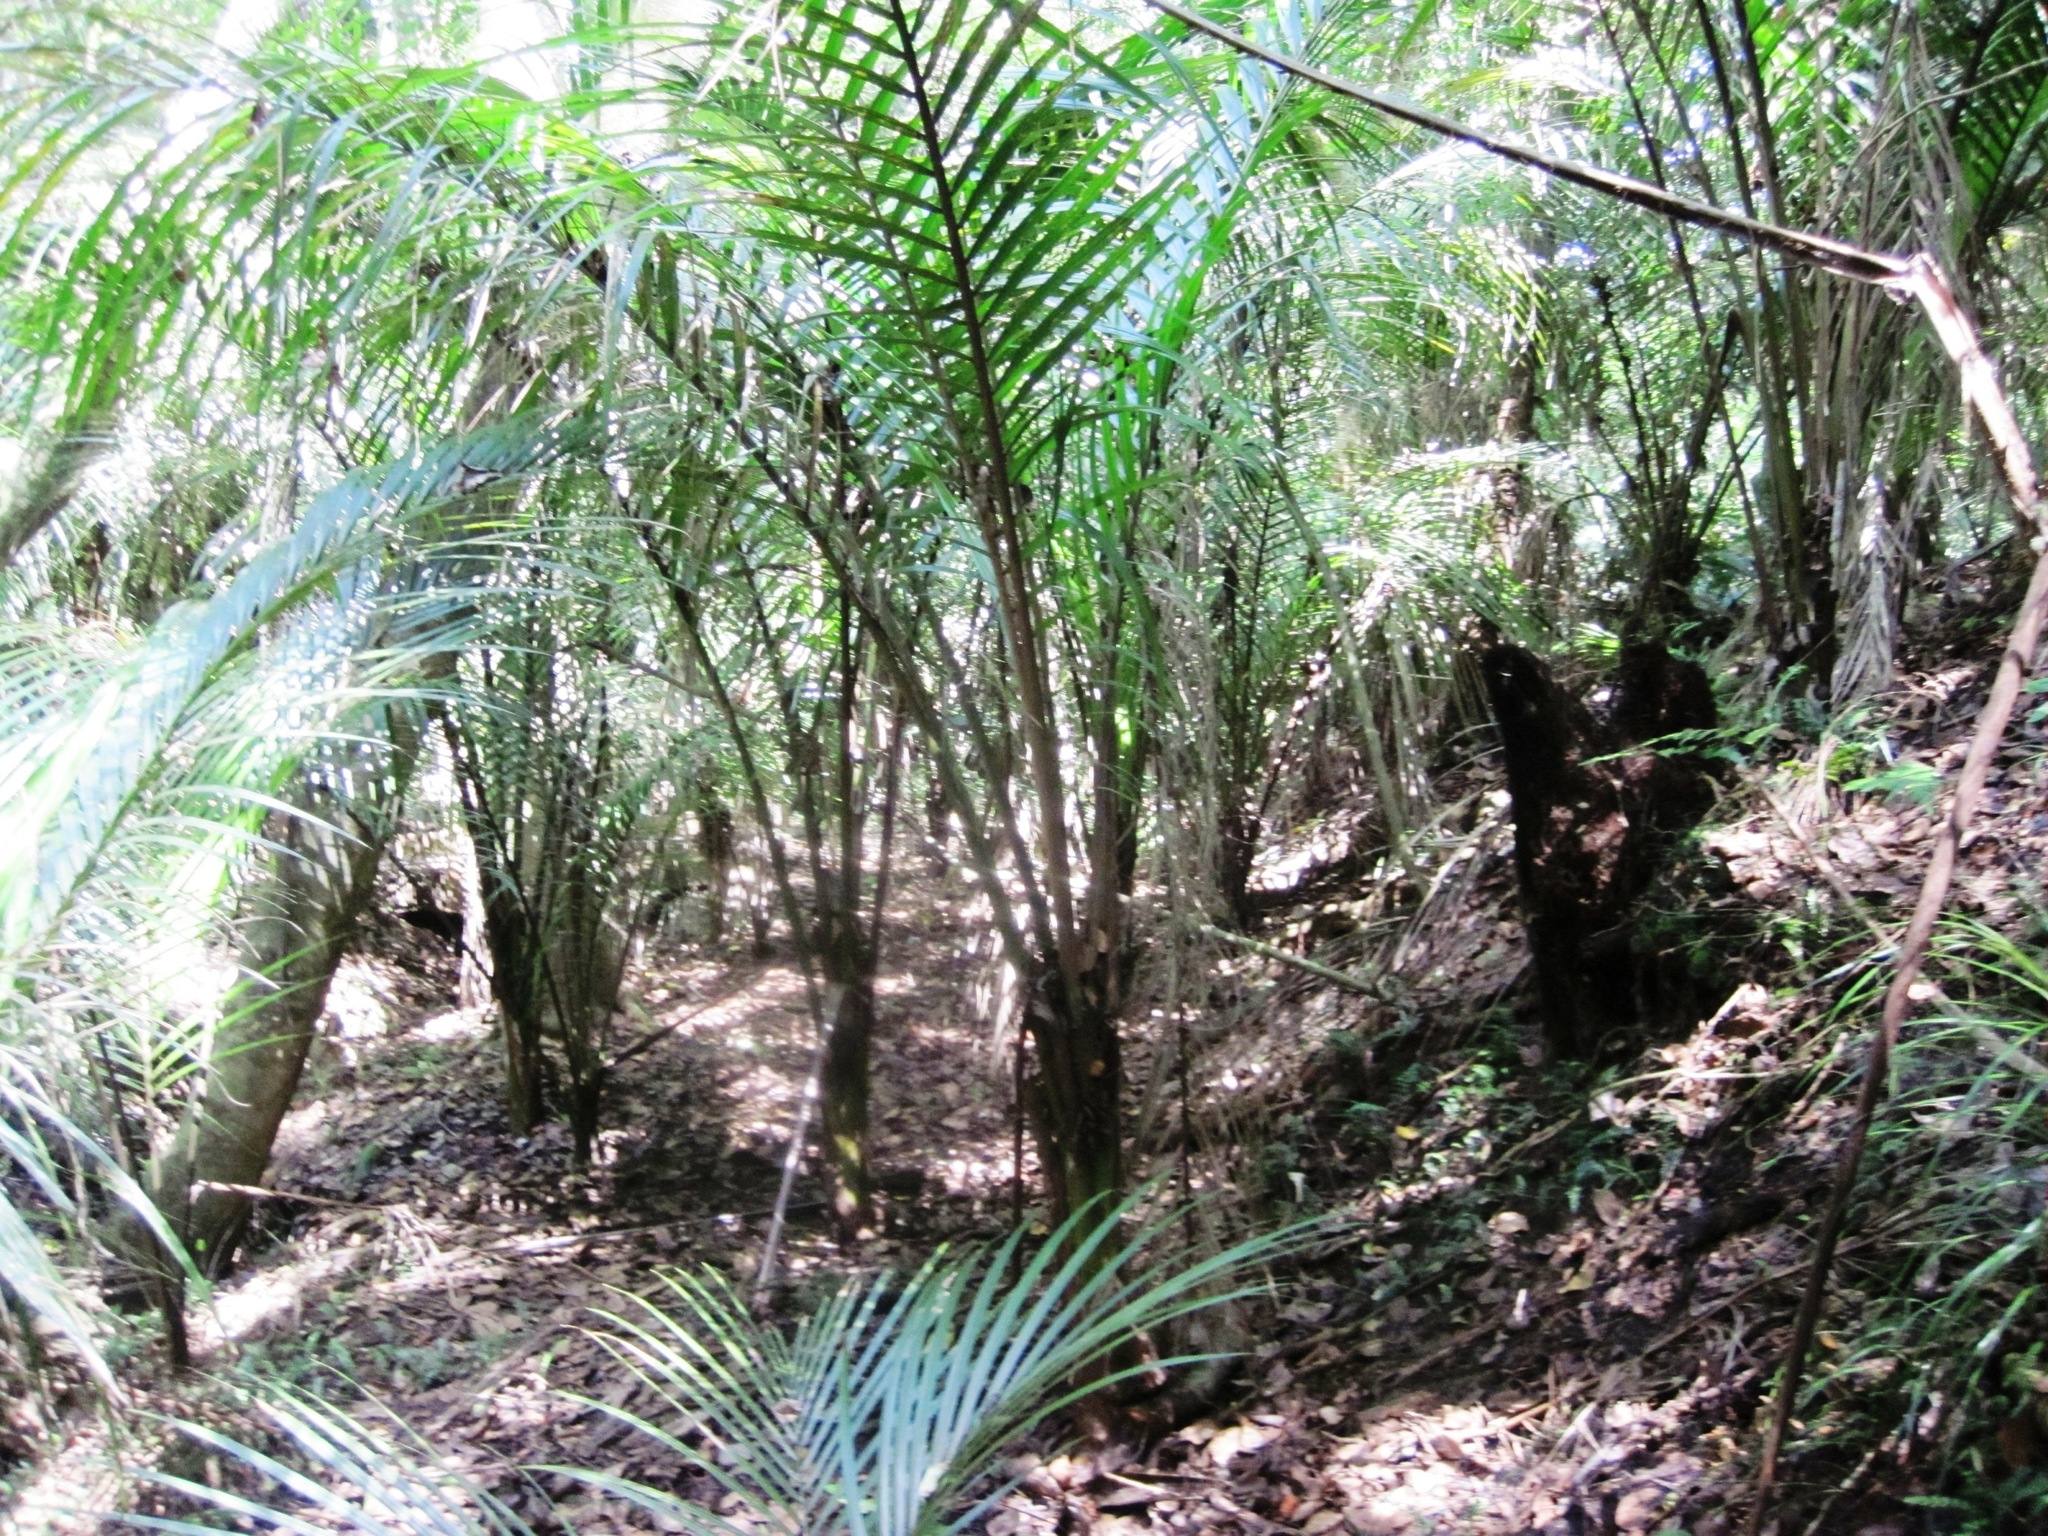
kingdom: Plantae
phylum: Tracheophyta
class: Liliopsida
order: Arecales
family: Arecaceae
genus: Rhopalostylis
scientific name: Rhopalostylis sapida
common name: Feather-duster palm
